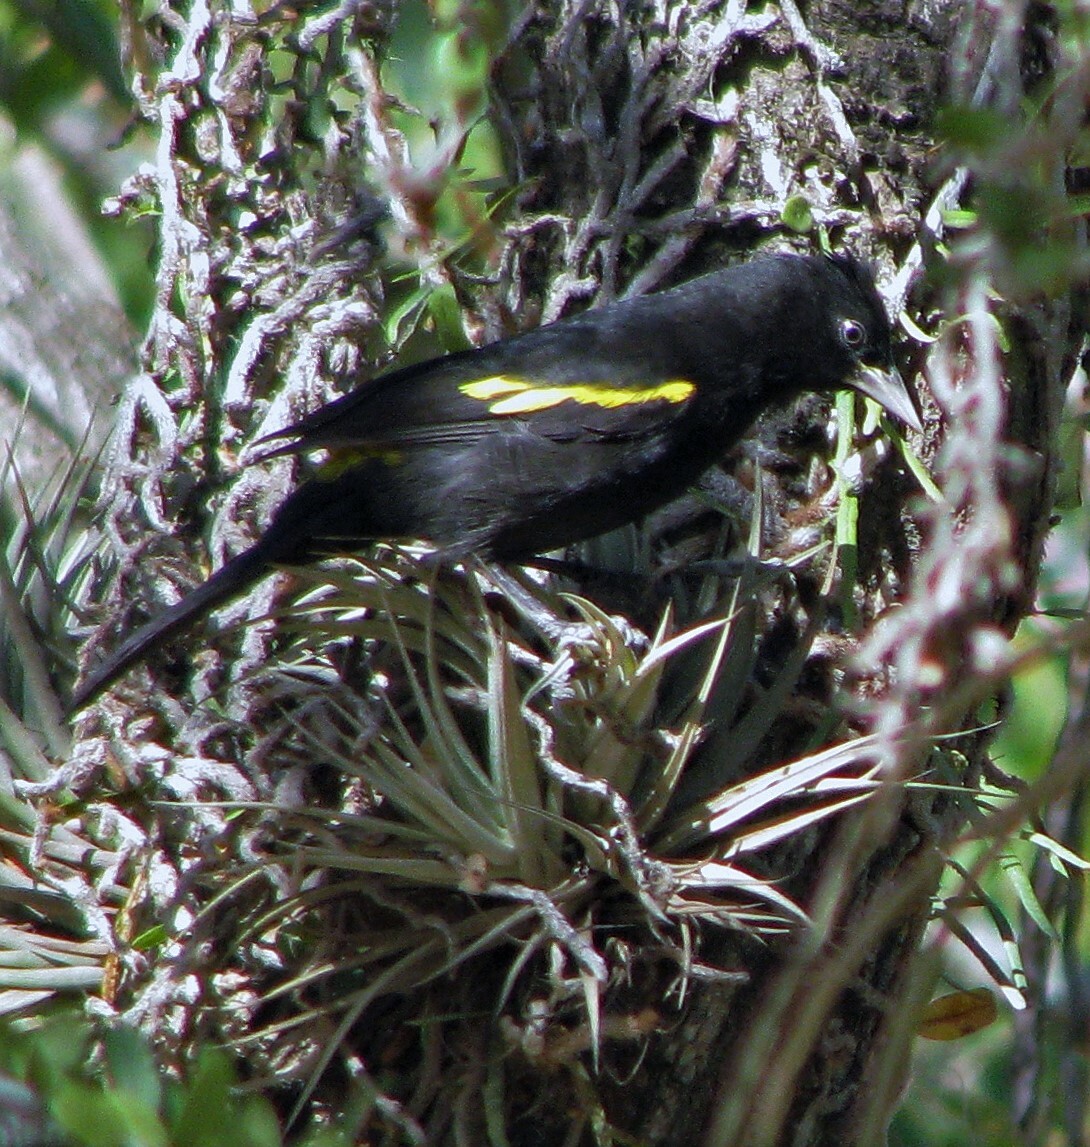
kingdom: Animalia
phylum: Chordata
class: Aves
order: Passeriformes
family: Icteridae
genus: Cacicus
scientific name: Cacicus chrysopterus
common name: Golden-winged cacique
